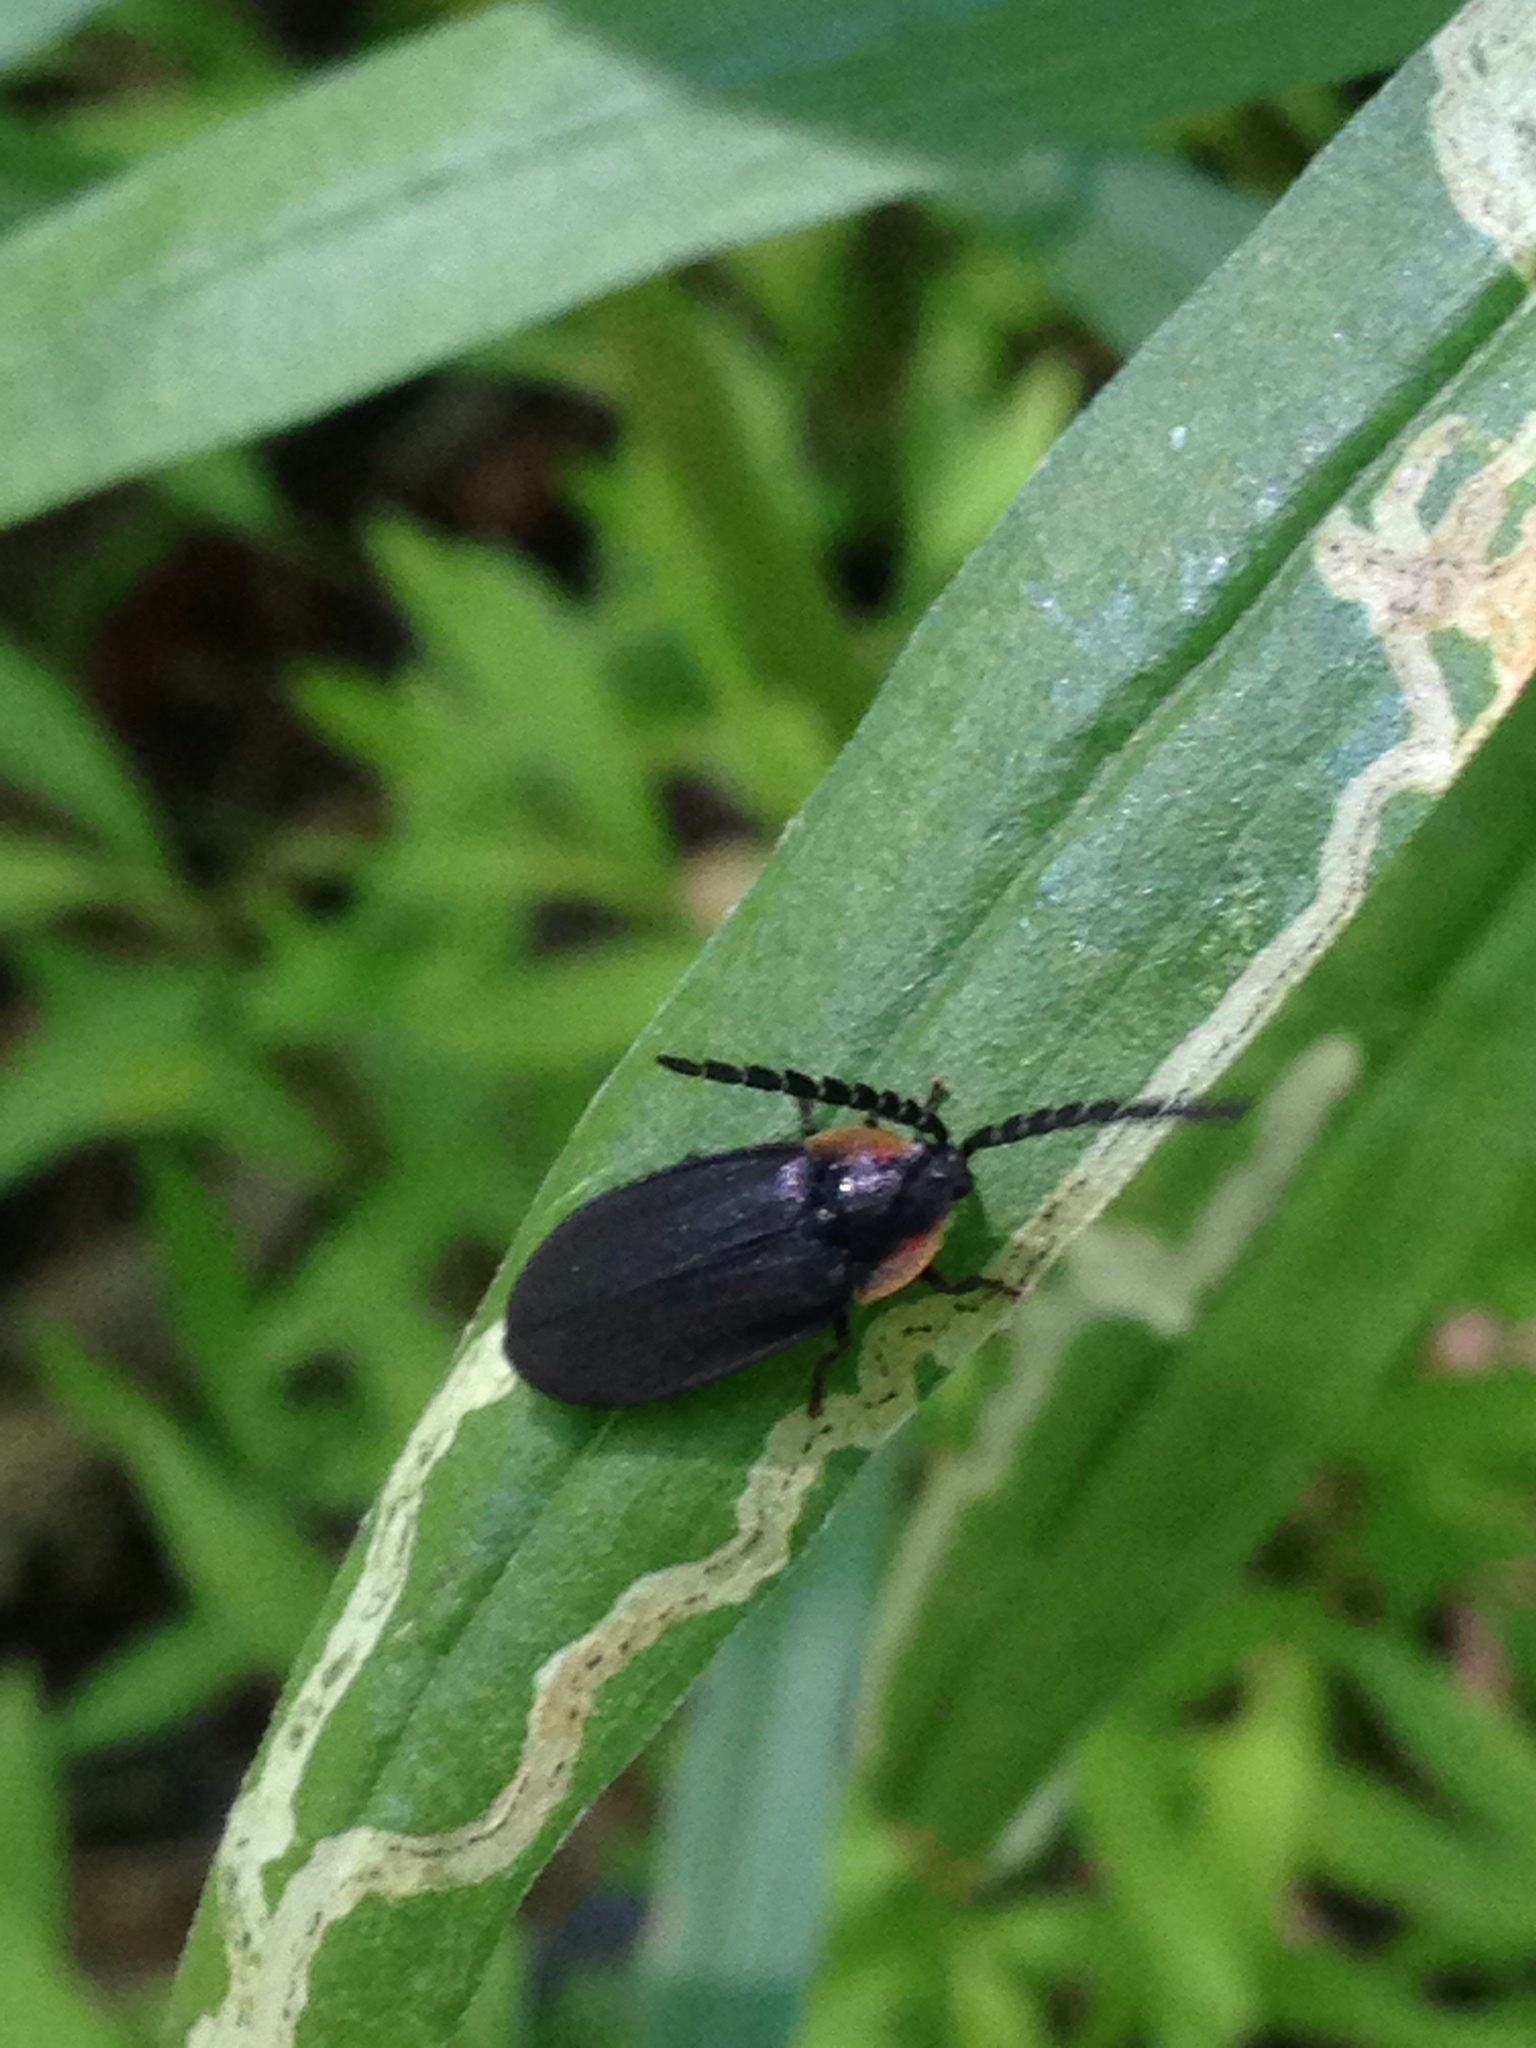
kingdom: Animalia
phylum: Arthropoda
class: Insecta
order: Coleoptera
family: Lampyridae
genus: Lucidota
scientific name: Lucidota atra
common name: Black firefly
